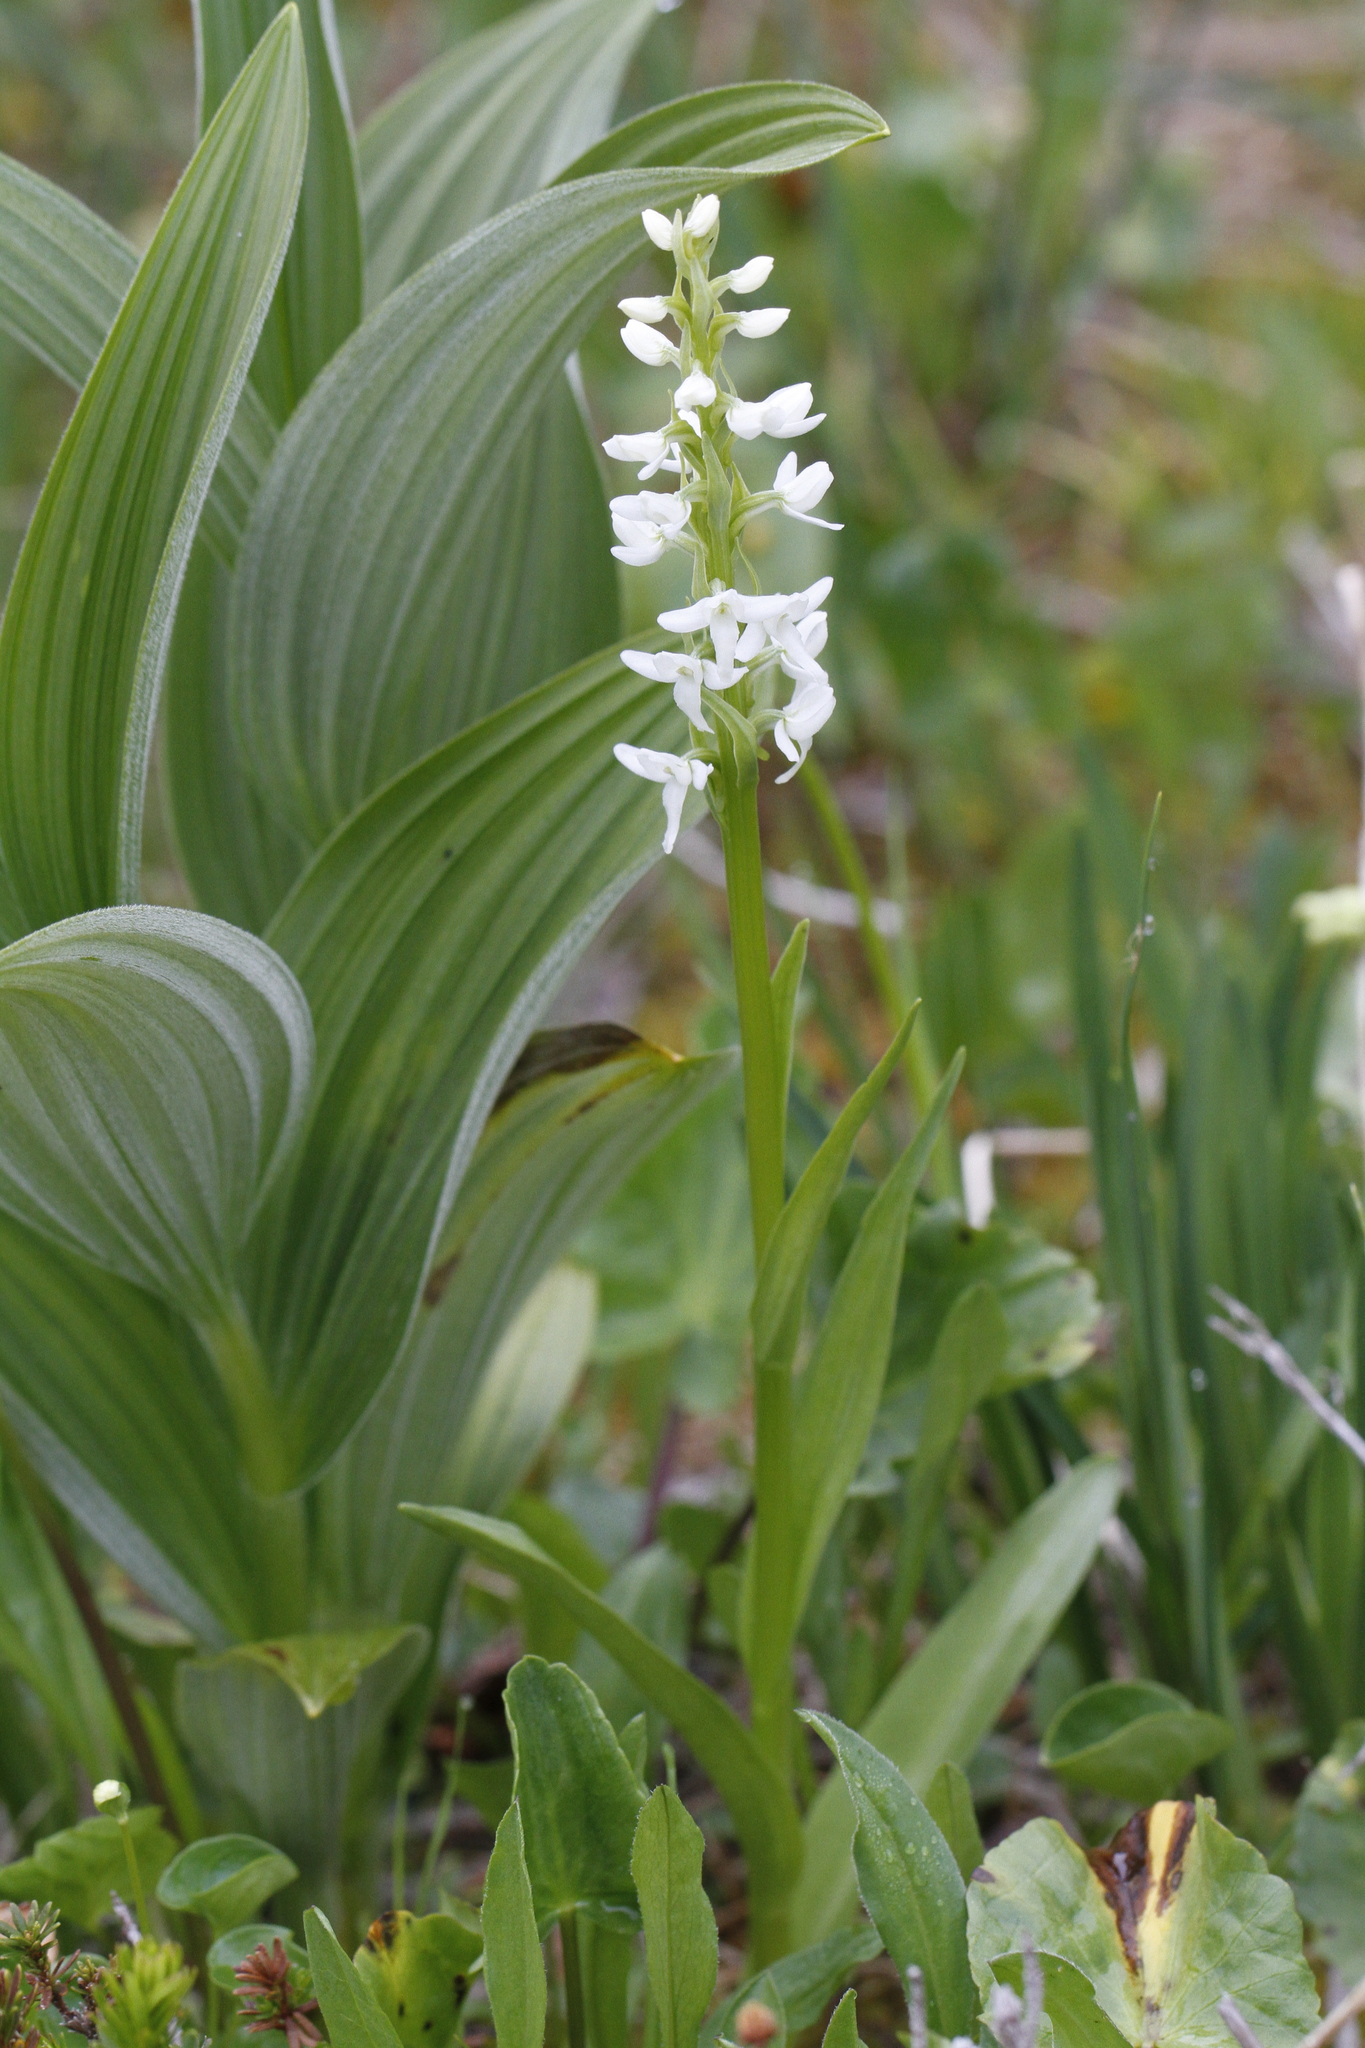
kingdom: Plantae
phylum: Tracheophyta
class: Liliopsida
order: Asparagales
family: Orchidaceae
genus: Platanthera
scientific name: Platanthera dilatata
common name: Bog candles
